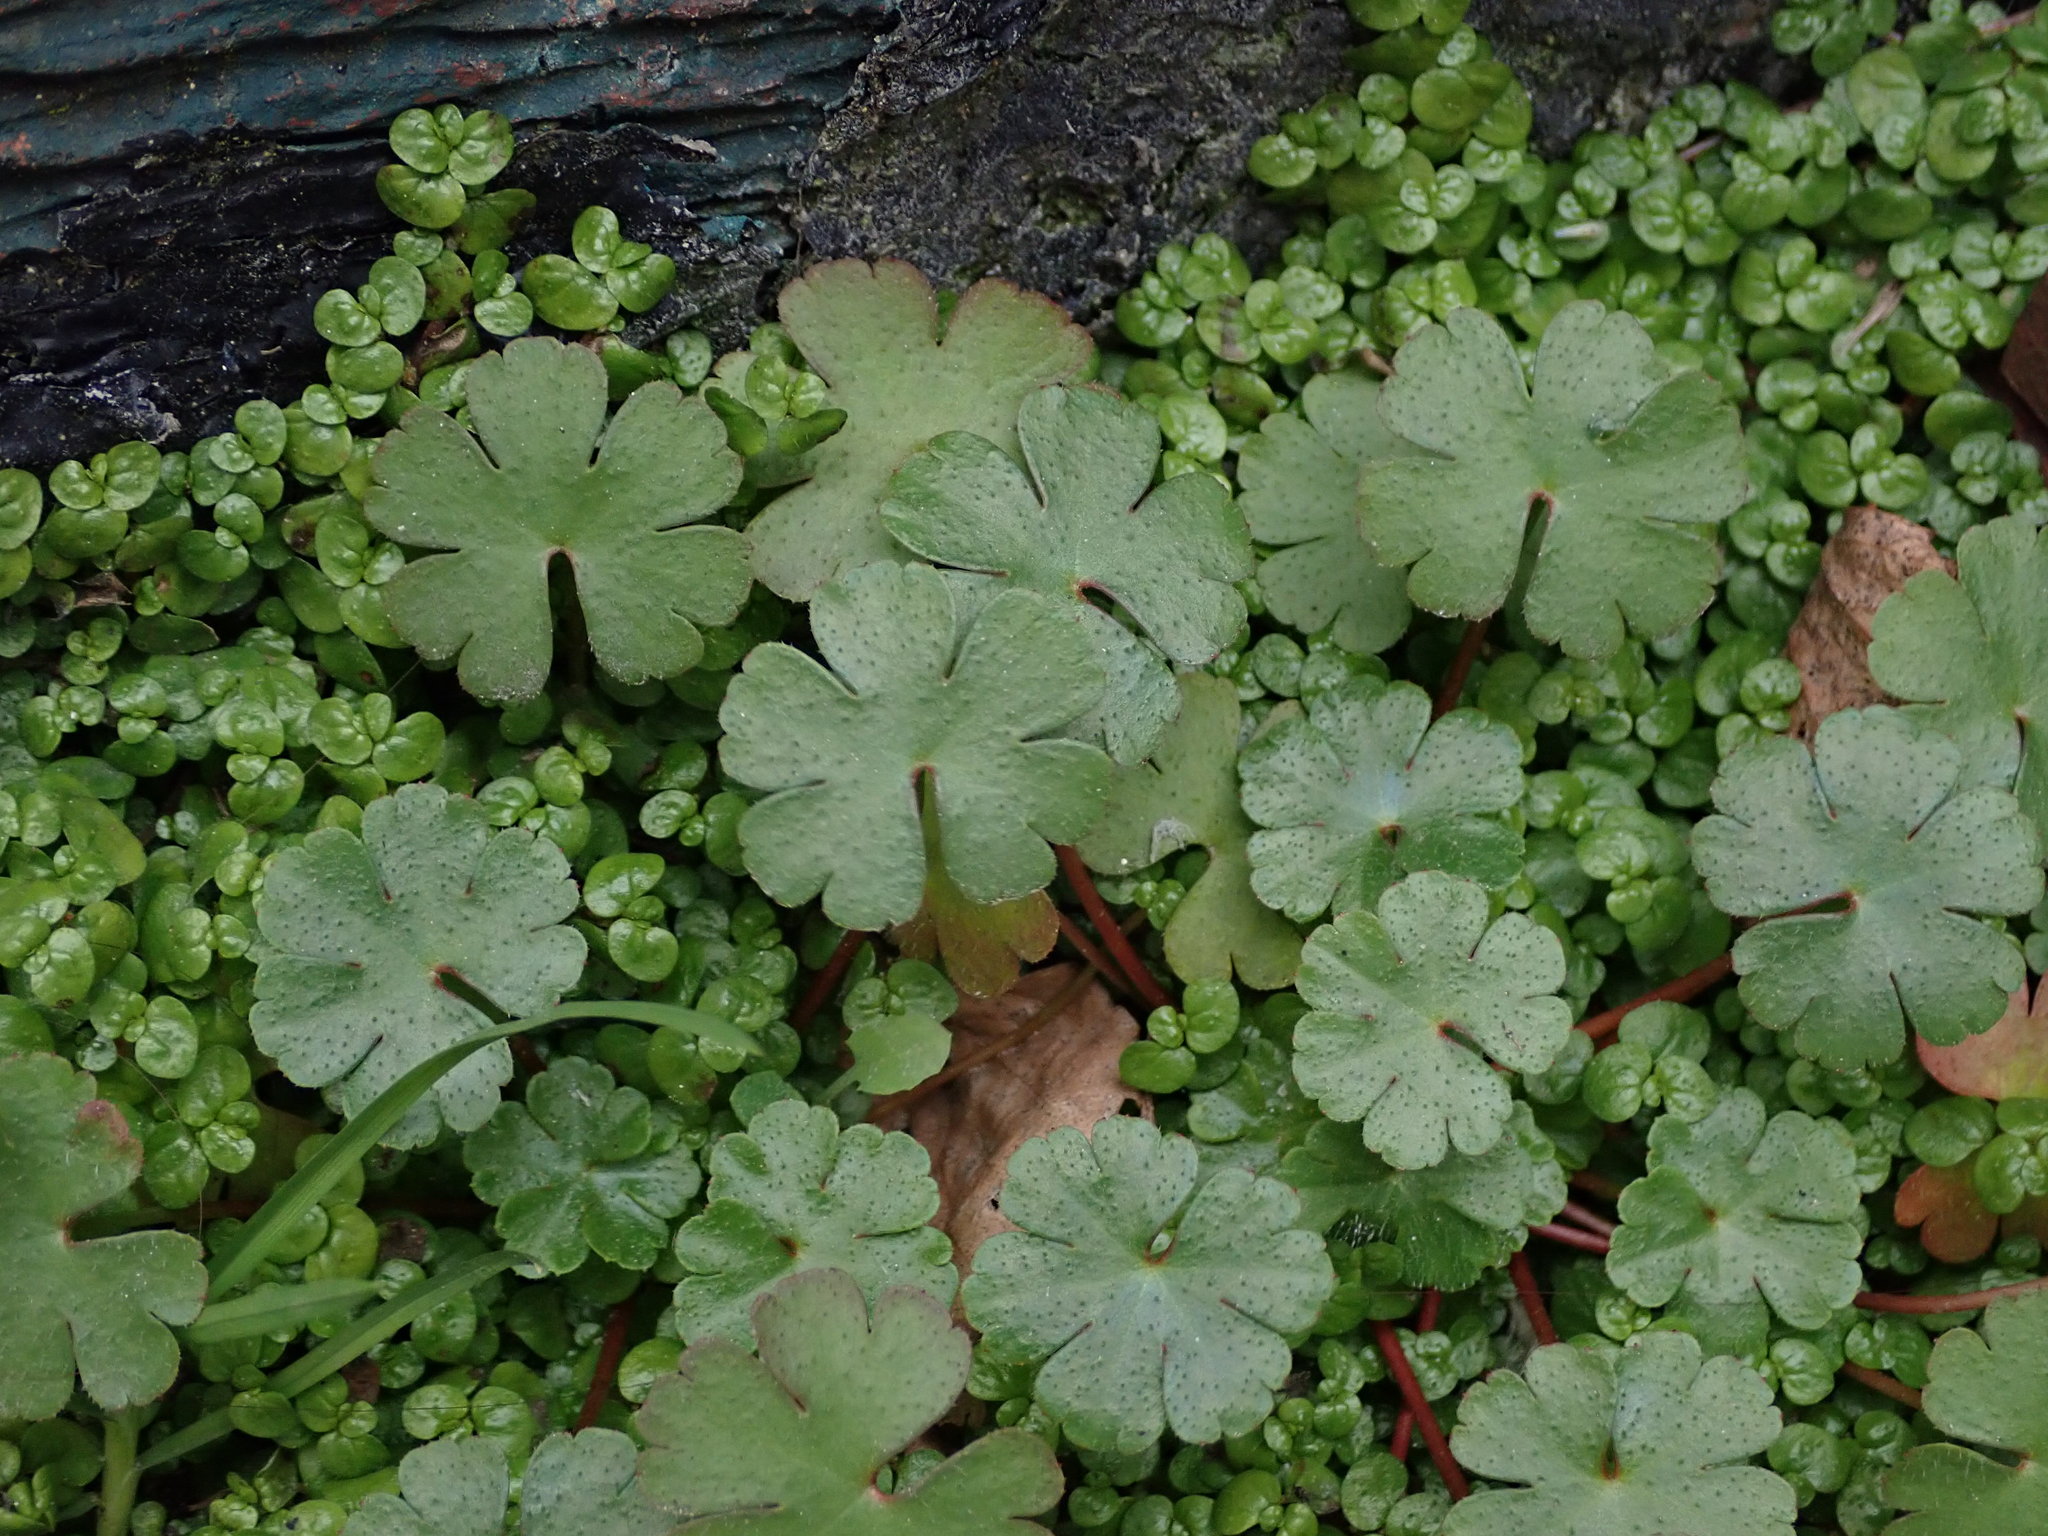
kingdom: Plantae
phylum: Tracheophyta
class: Magnoliopsida
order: Geraniales
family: Geraniaceae
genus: Geranium
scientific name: Geranium lucidum
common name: Shining crane's-bill
